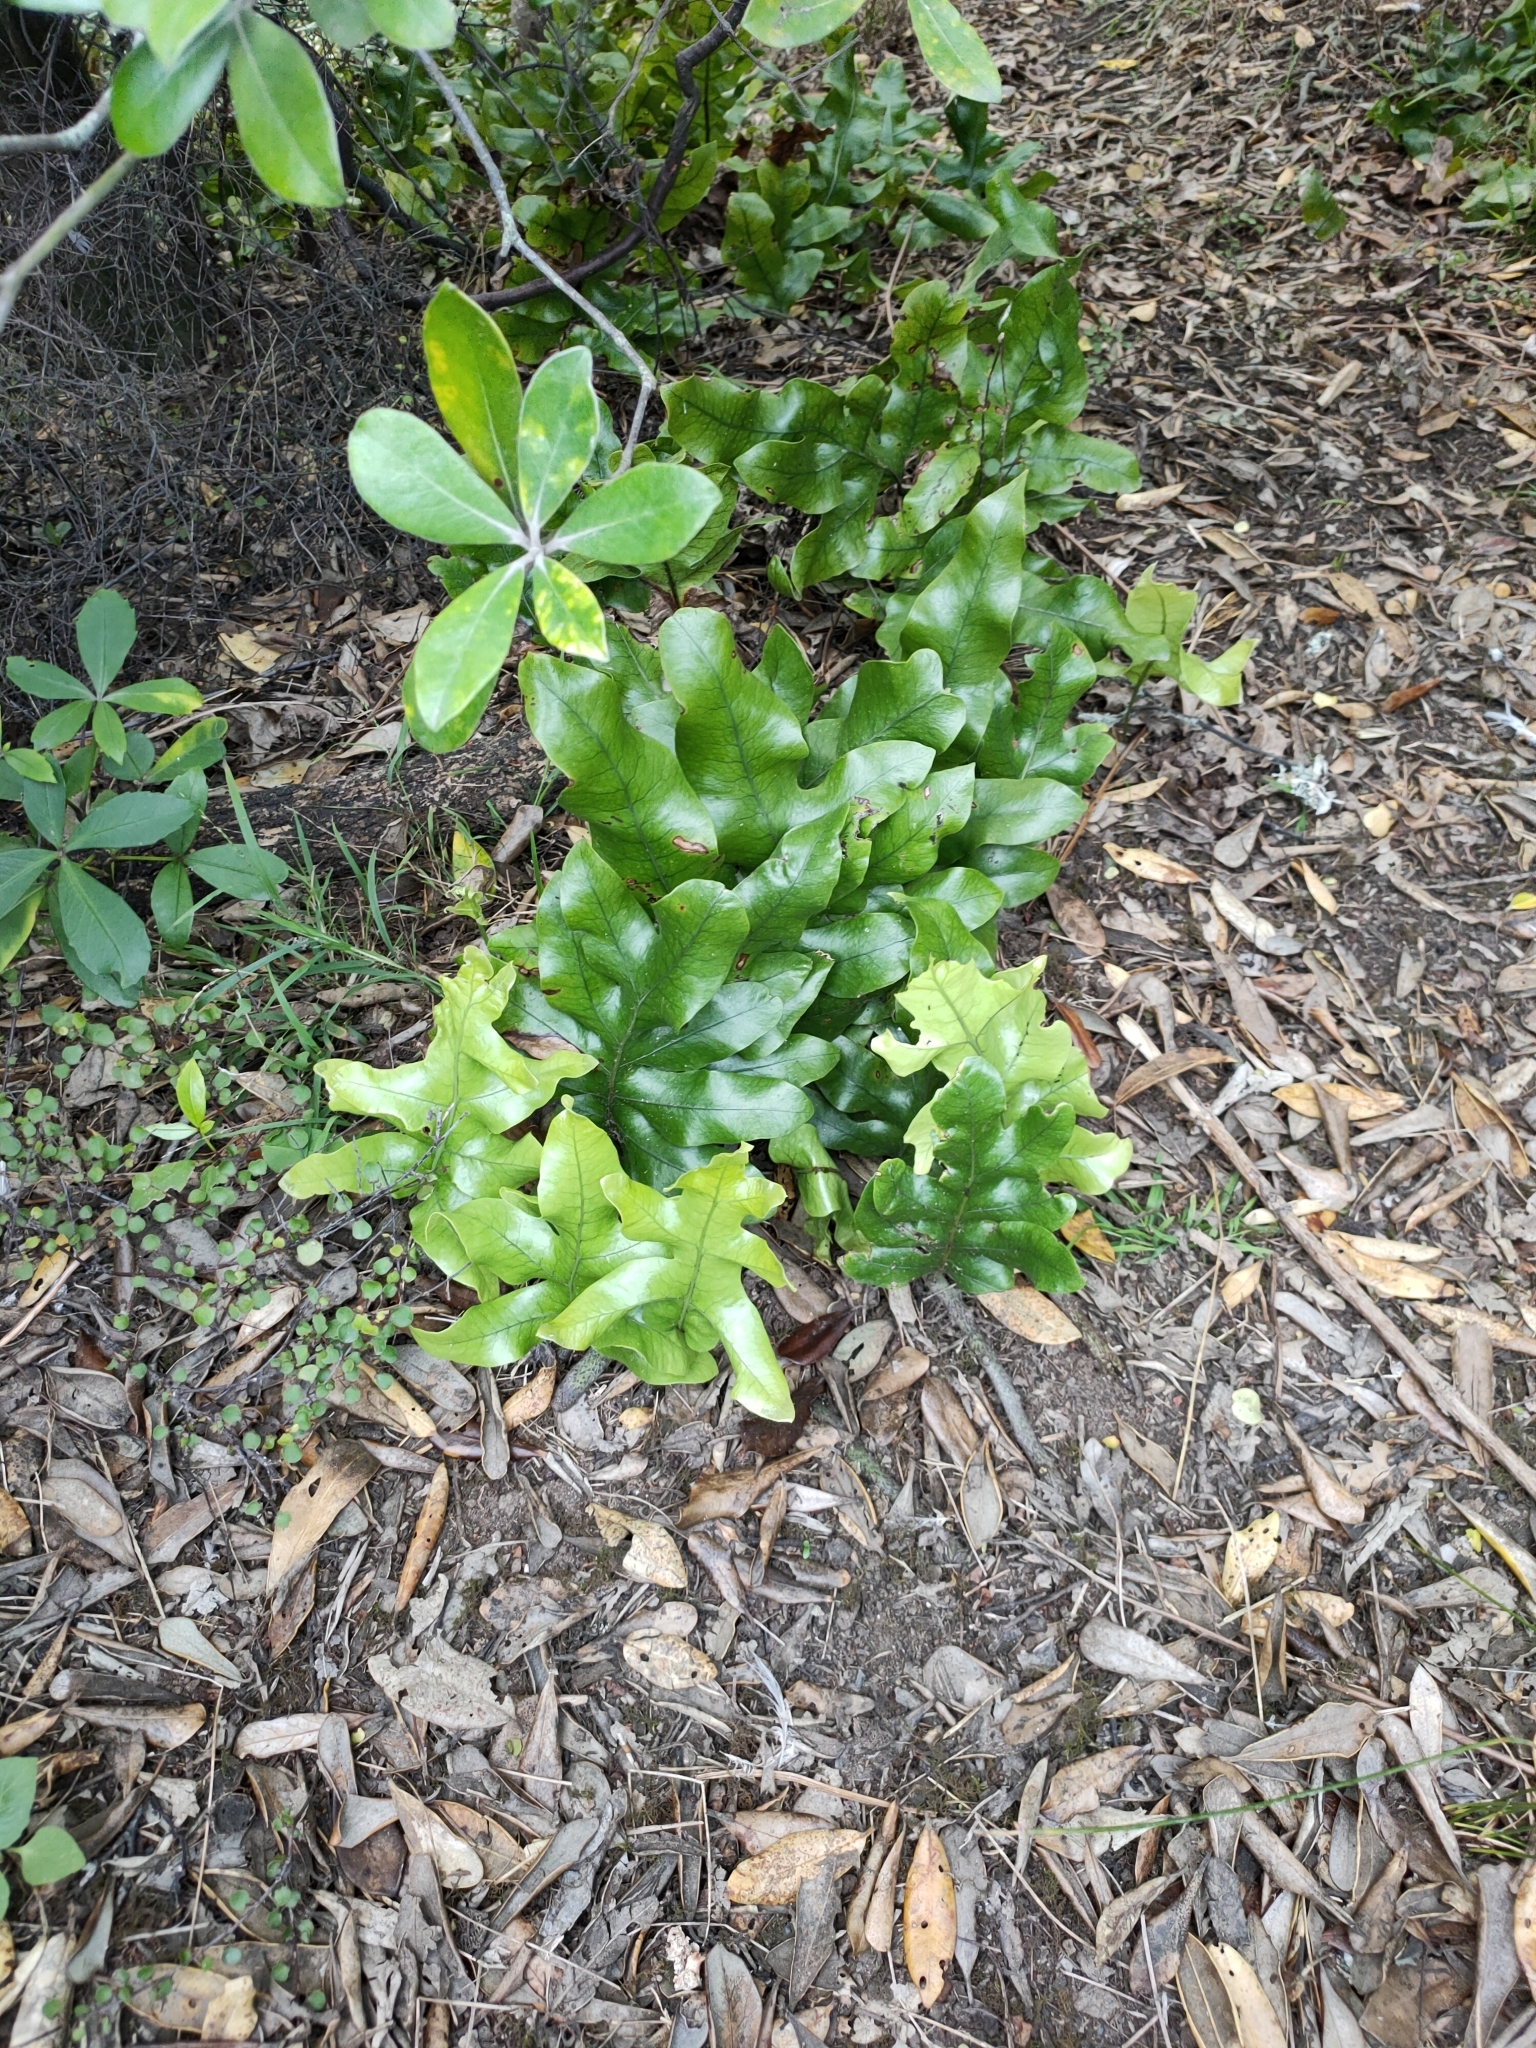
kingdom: Plantae
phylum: Tracheophyta
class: Polypodiopsida
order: Polypodiales
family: Polypodiaceae
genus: Lecanopteris
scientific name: Lecanopteris pustulata
